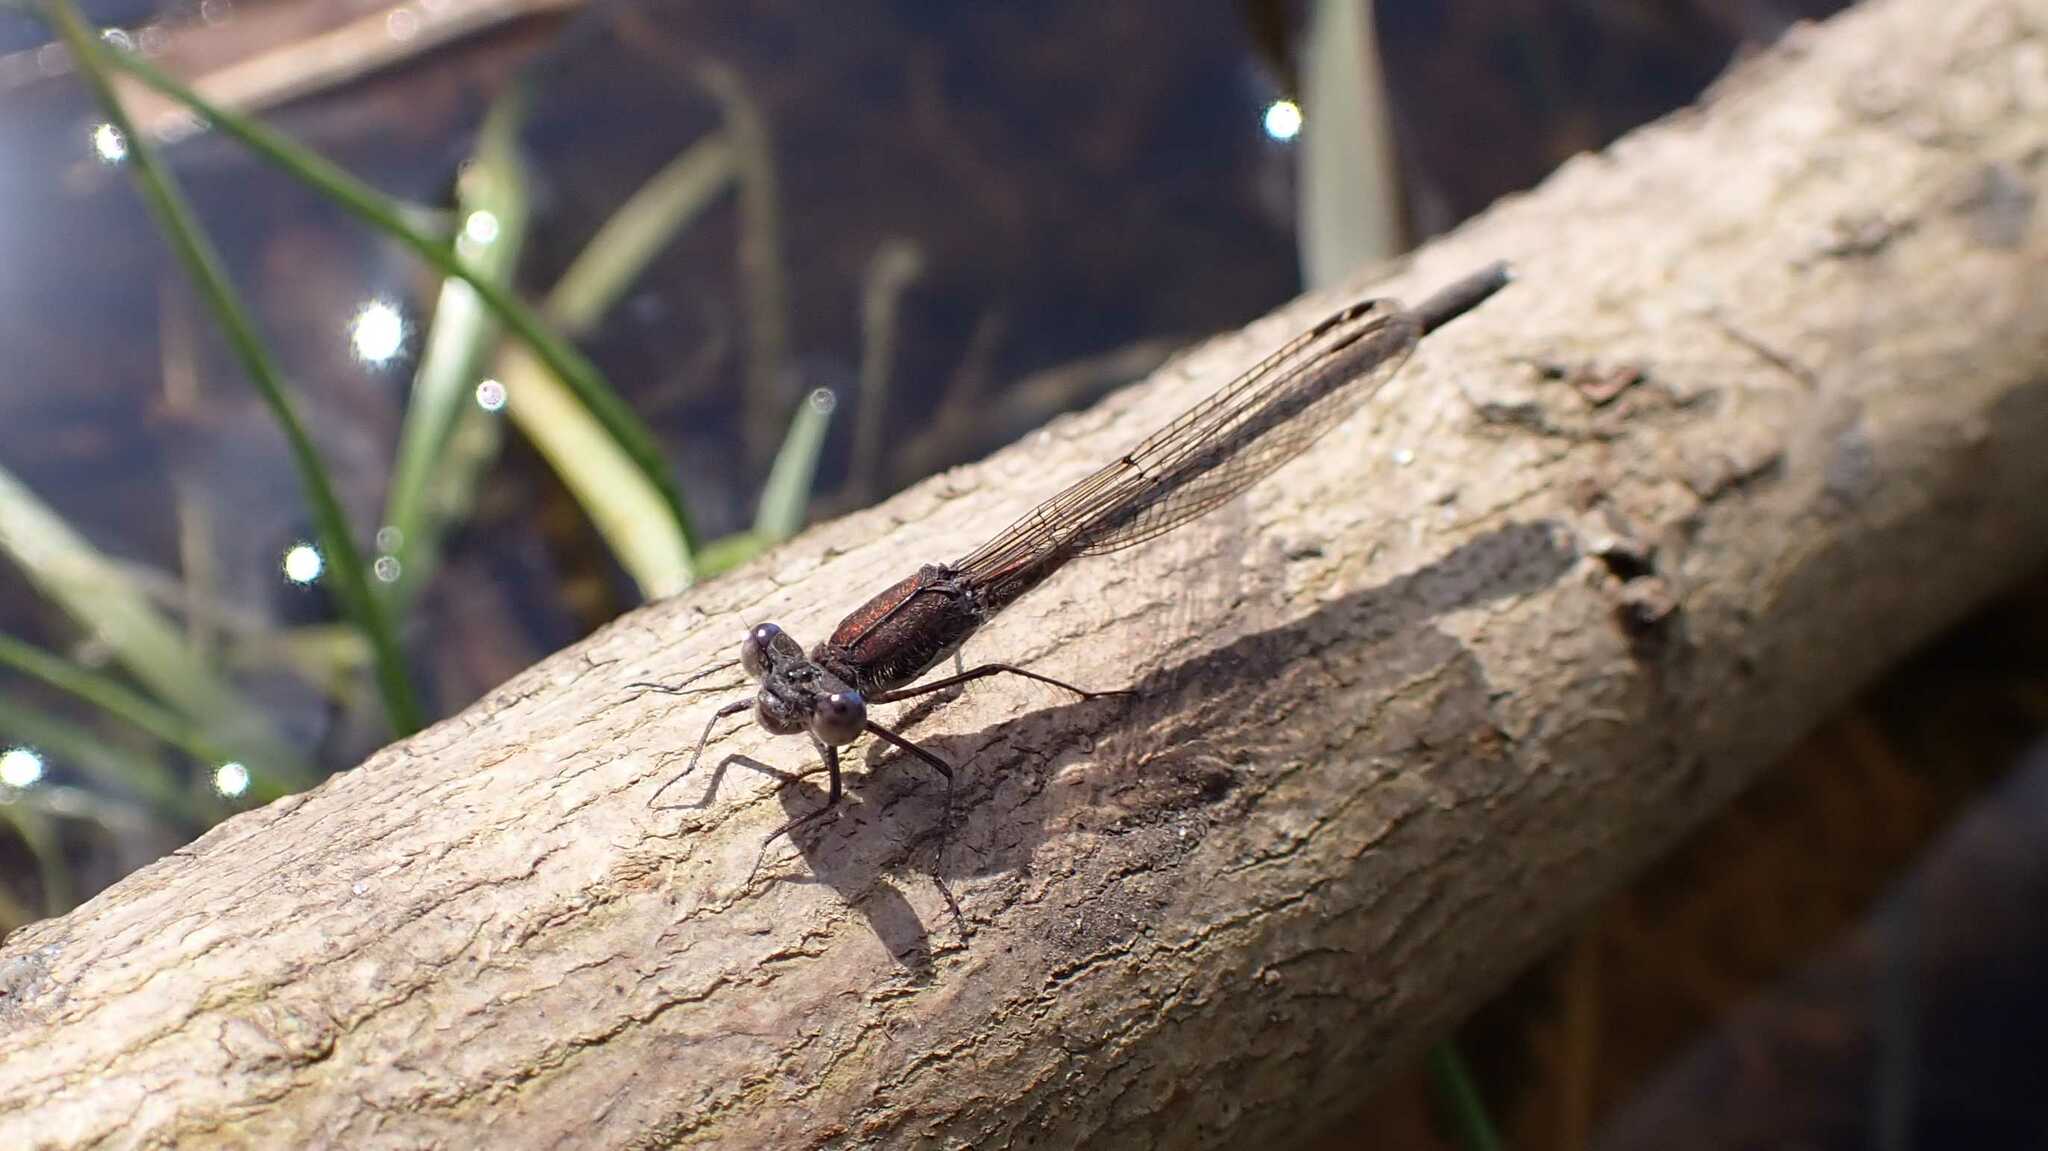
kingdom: Animalia
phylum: Arthropoda
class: Insecta
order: Odonata
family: Lestidae
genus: Sympecma
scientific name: Sympecma fusca
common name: Common winter damsel
